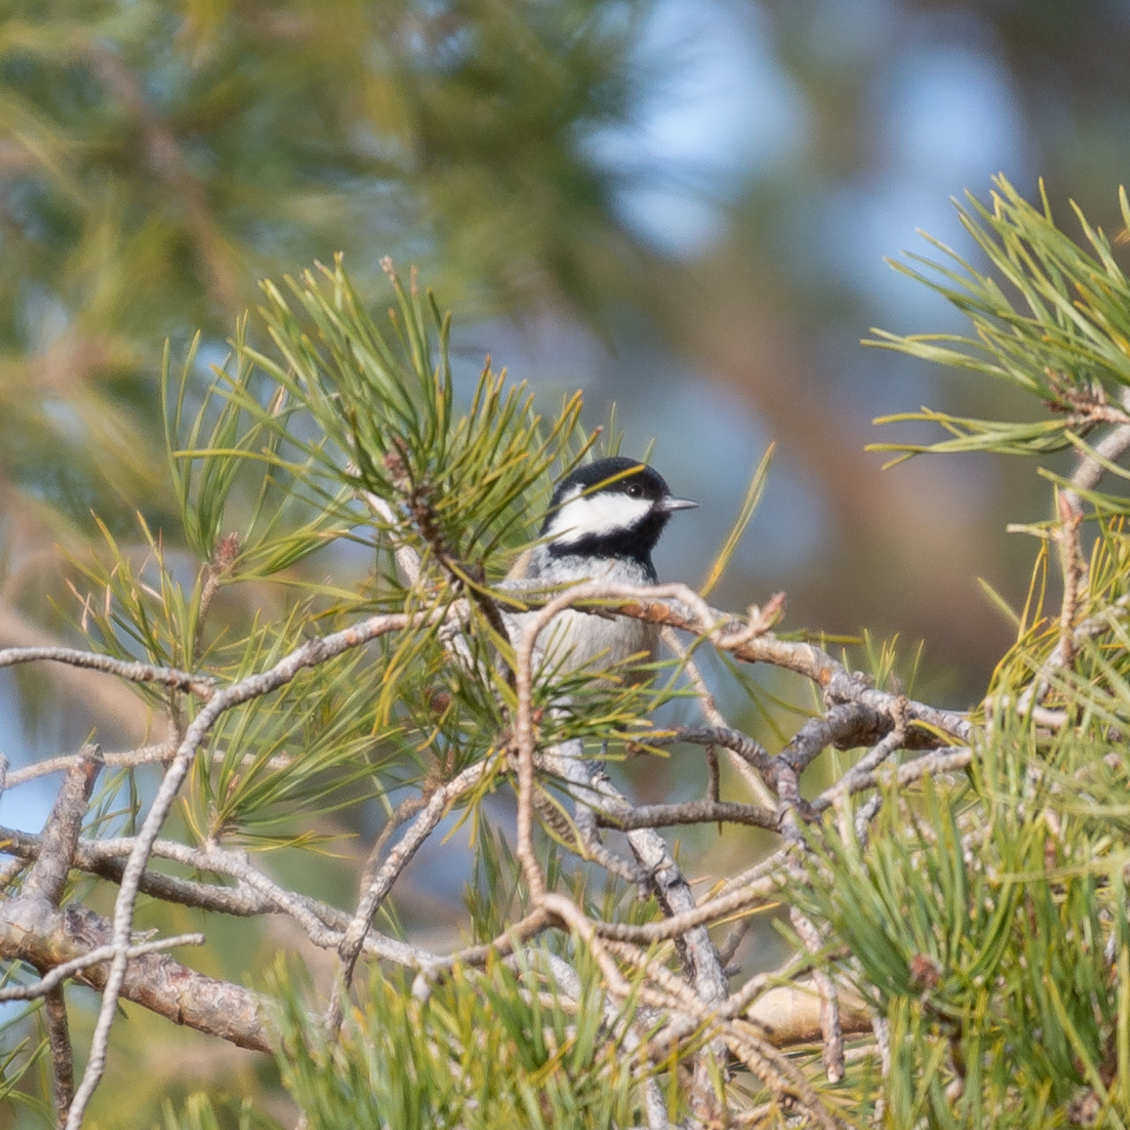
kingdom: Animalia
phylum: Chordata
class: Aves
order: Passeriformes
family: Paridae
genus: Periparus
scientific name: Periparus ater
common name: Coal tit
